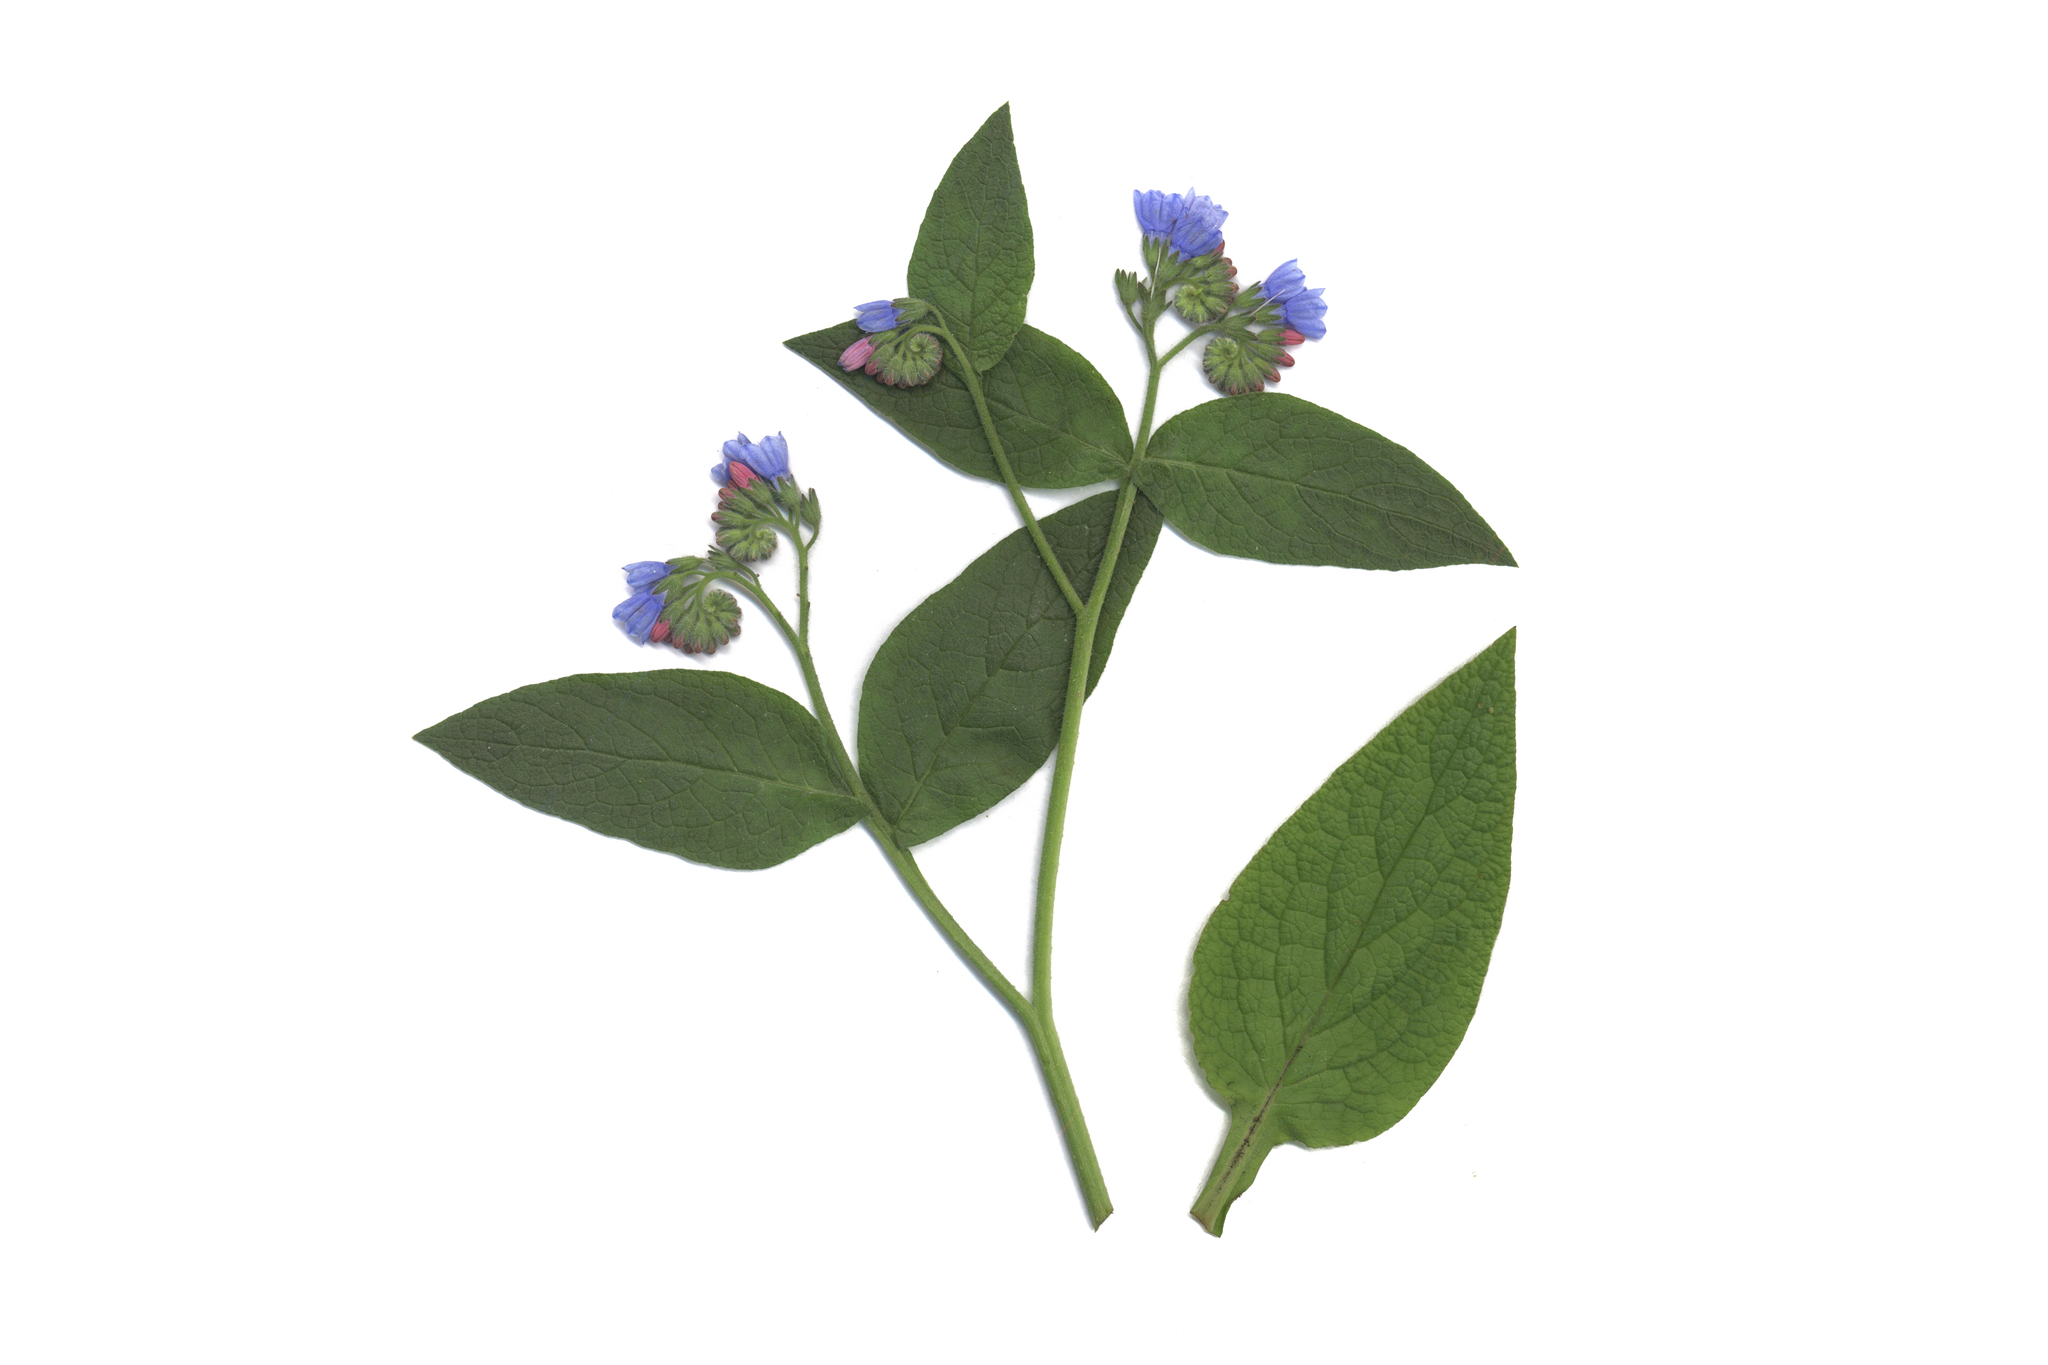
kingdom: Plantae
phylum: Tracheophyta
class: Magnoliopsida
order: Boraginales
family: Boraginaceae
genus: Symphytum
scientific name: Symphytum caucasicum
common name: Caucasian comfrey
